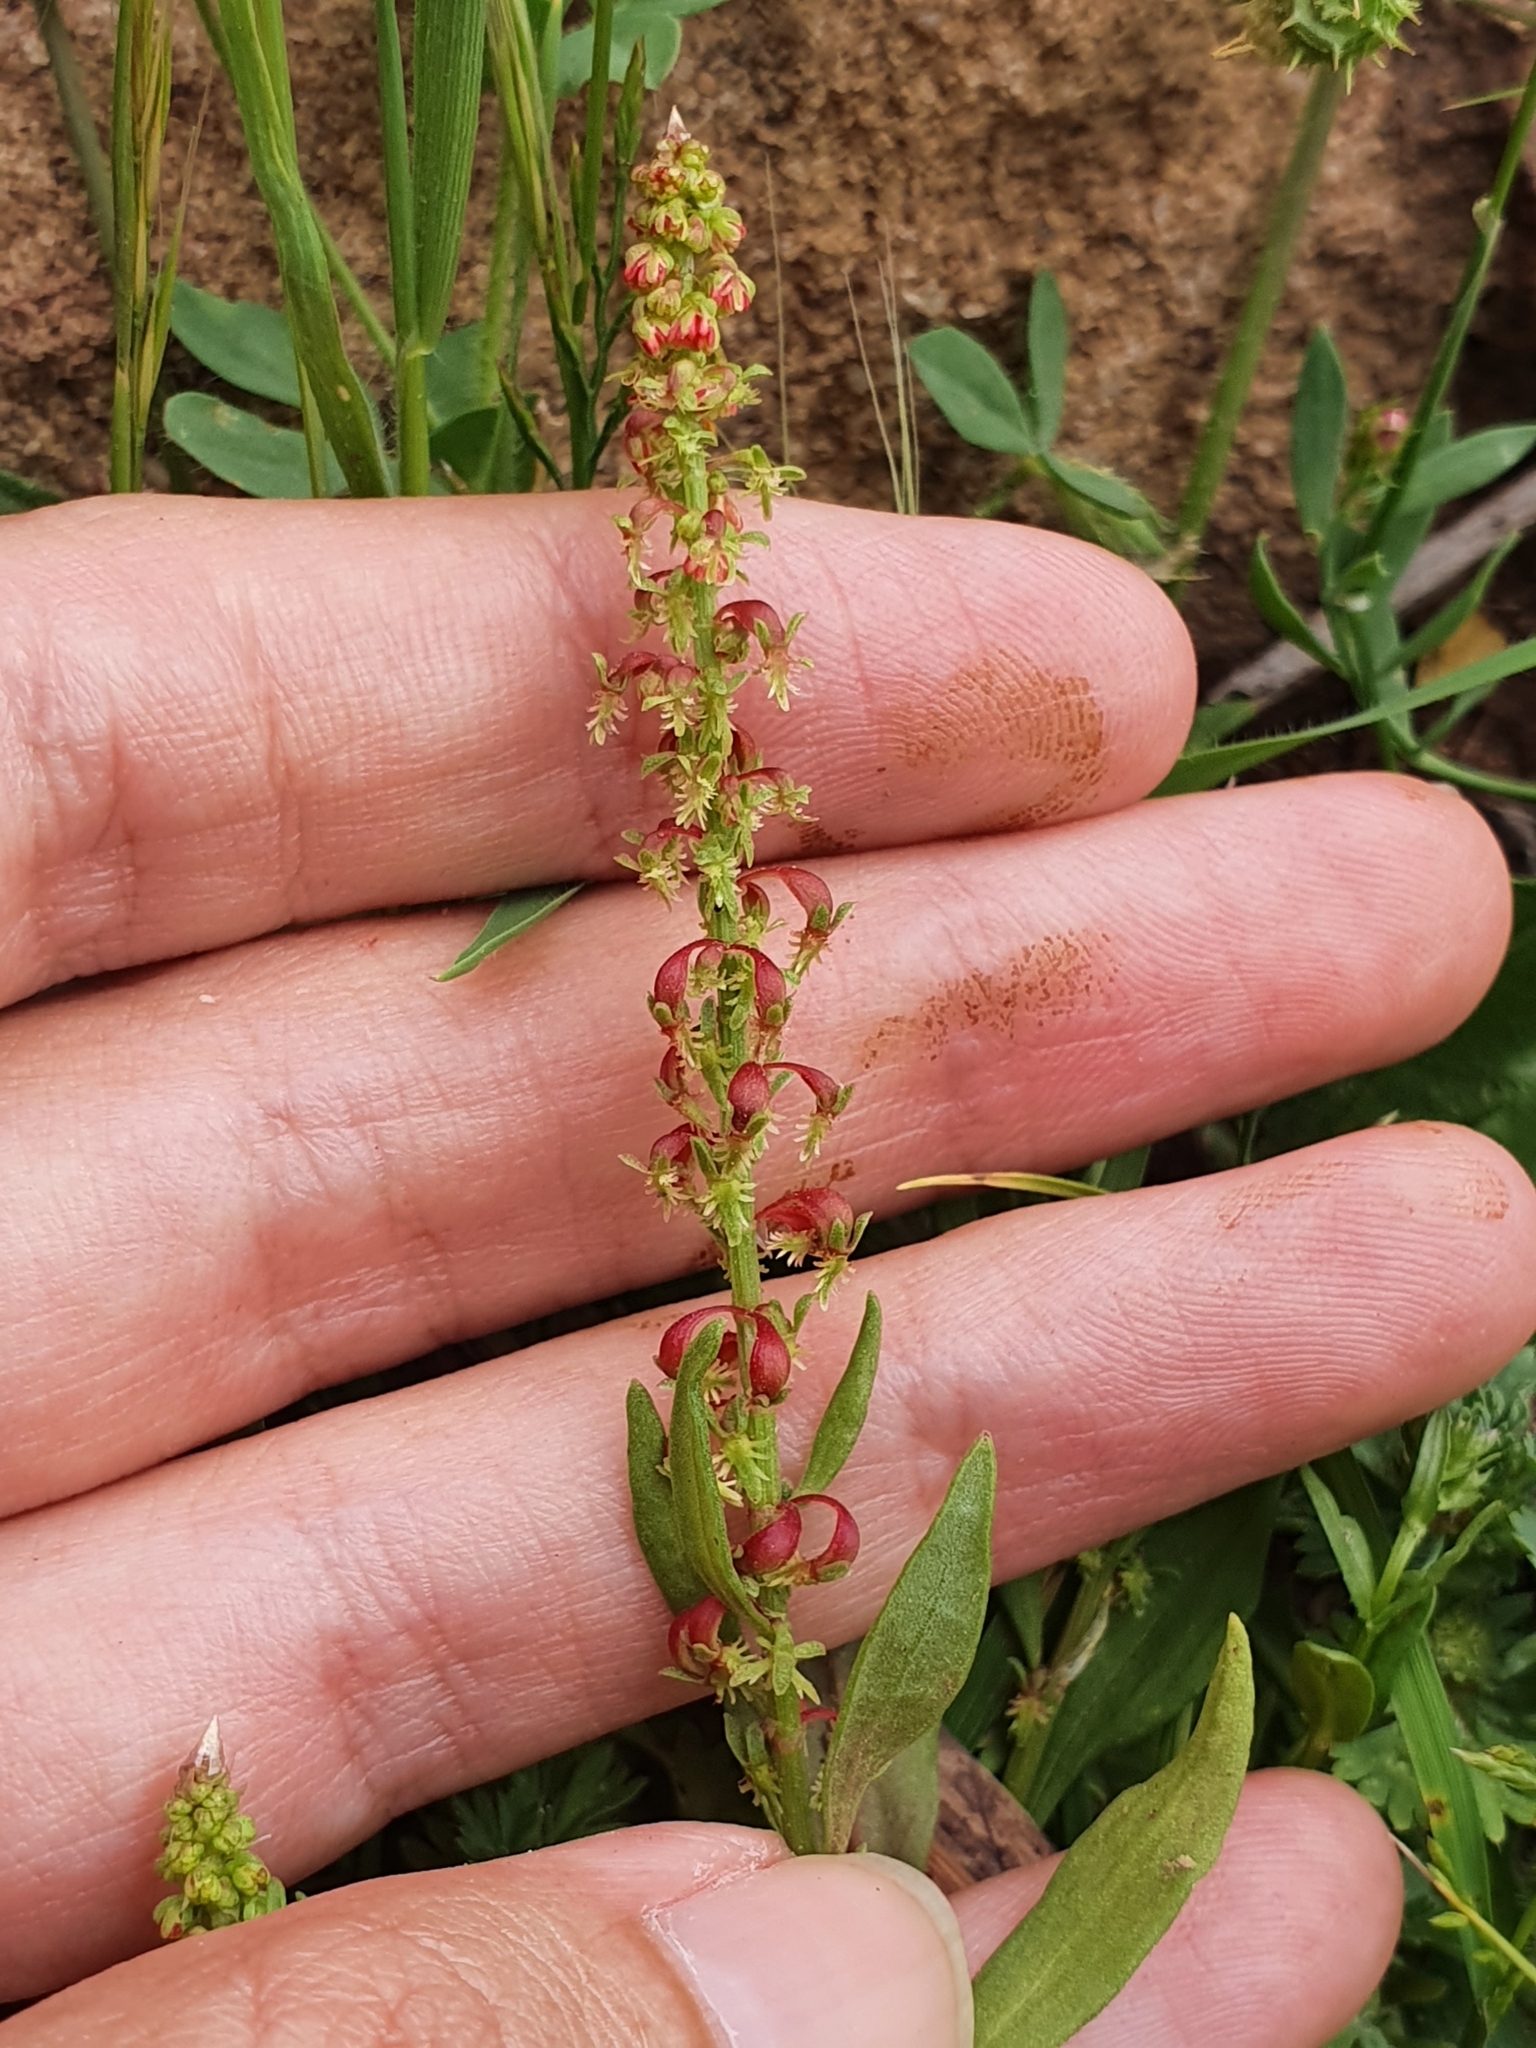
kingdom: Plantae
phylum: Tracheophyta
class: Magnoliopsida
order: Caryophyllales
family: Polygonaceae
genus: Rumex
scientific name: Rumex bucephalophorus
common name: Red dock
